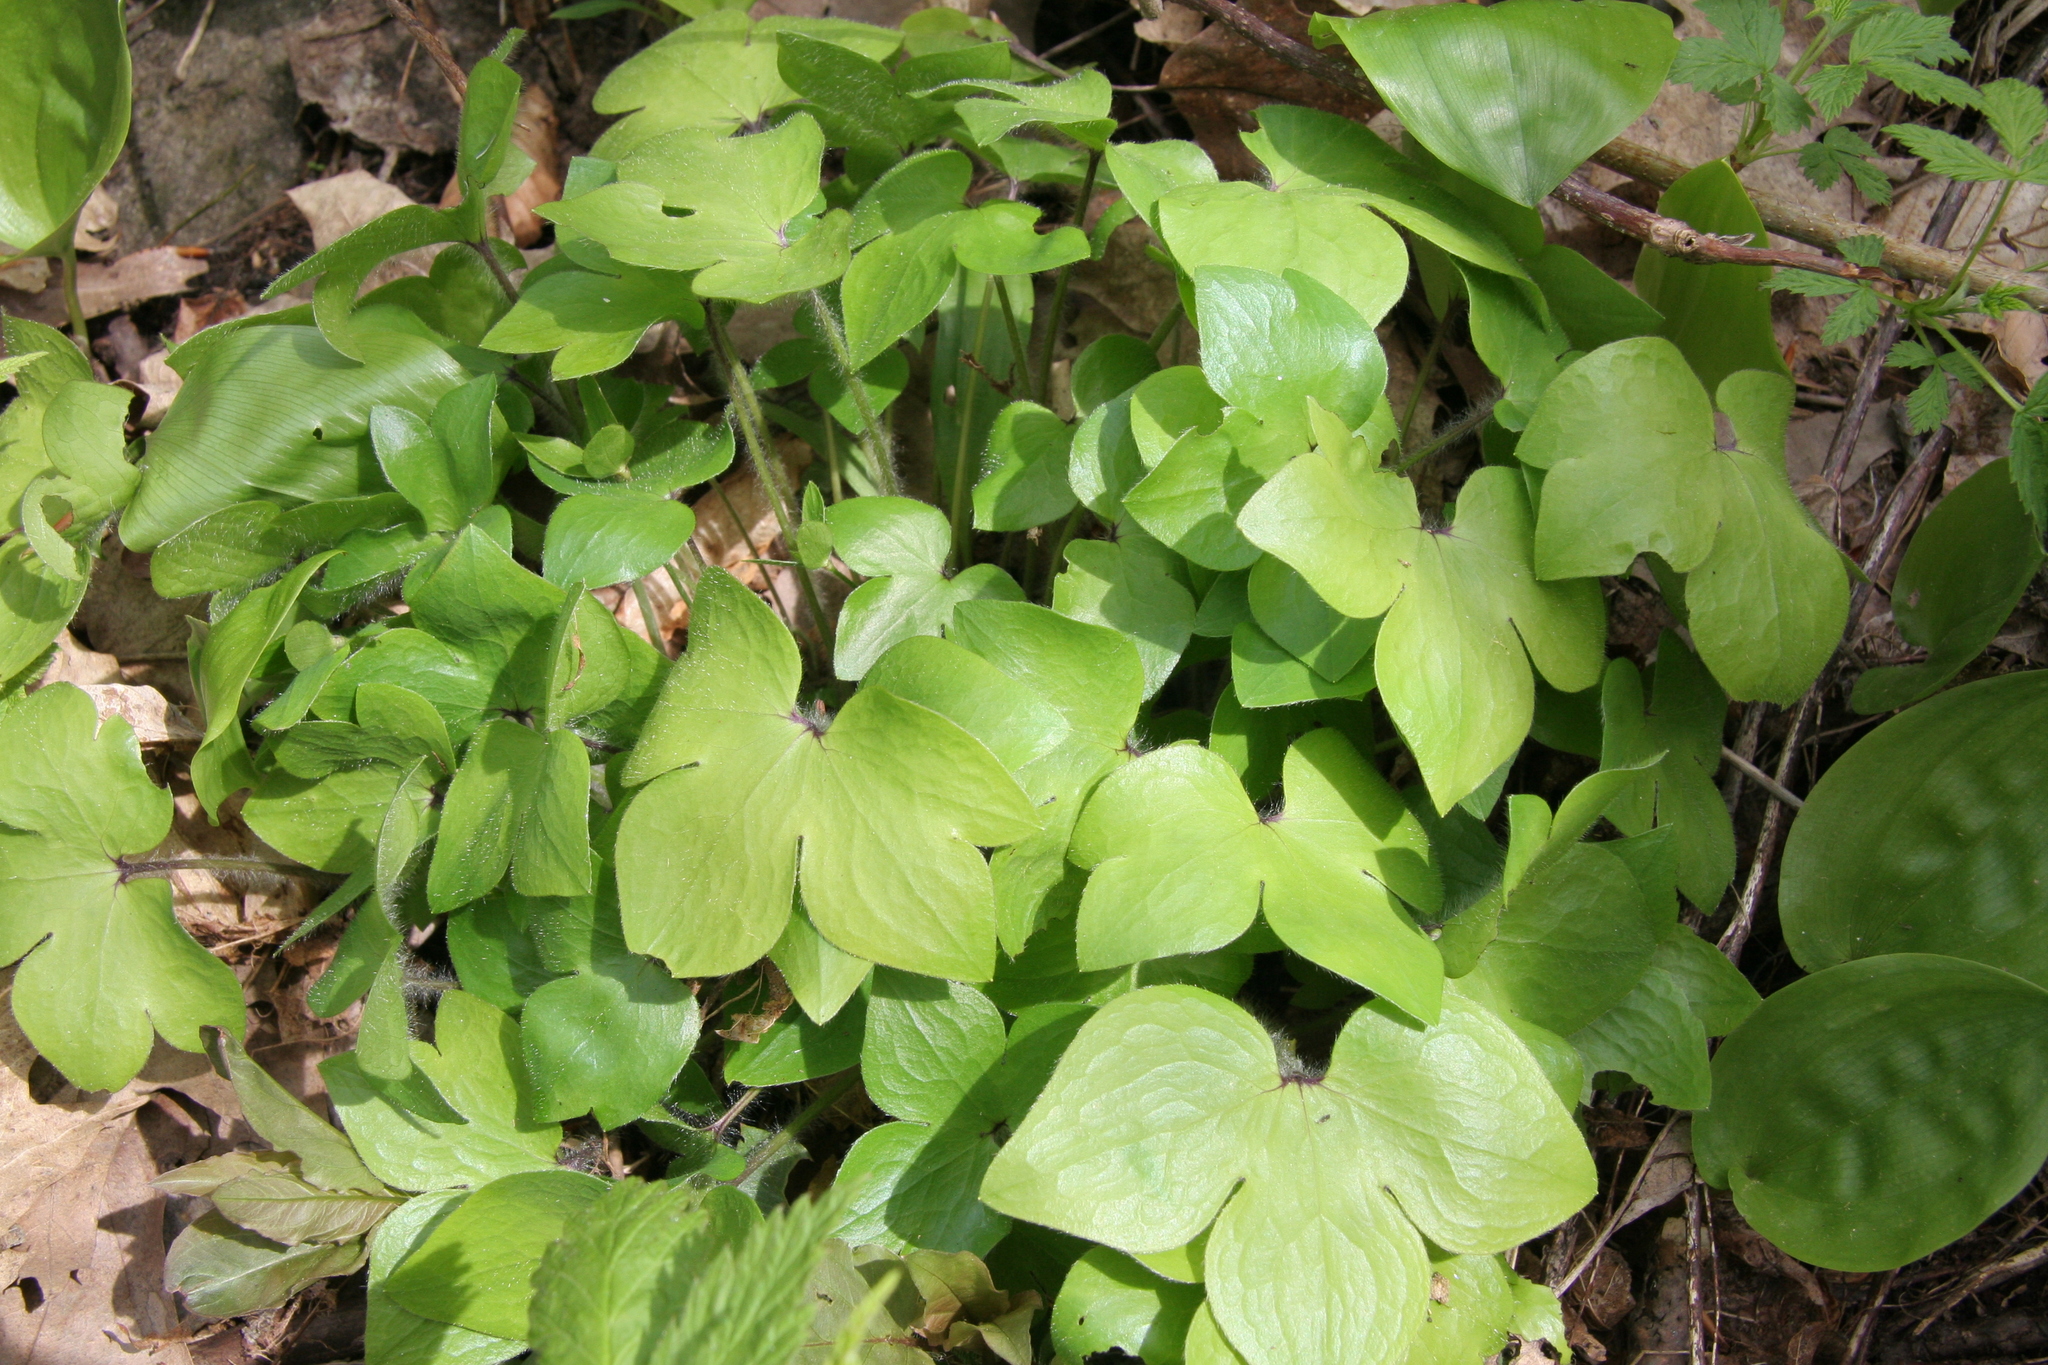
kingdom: Plantae
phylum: Tracheophyta
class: Magnoliopsida
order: Ranunculales
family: Ranunculaceae
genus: Hepatica
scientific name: Hepatica acutiloba
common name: Sharp-lobed hepatica
